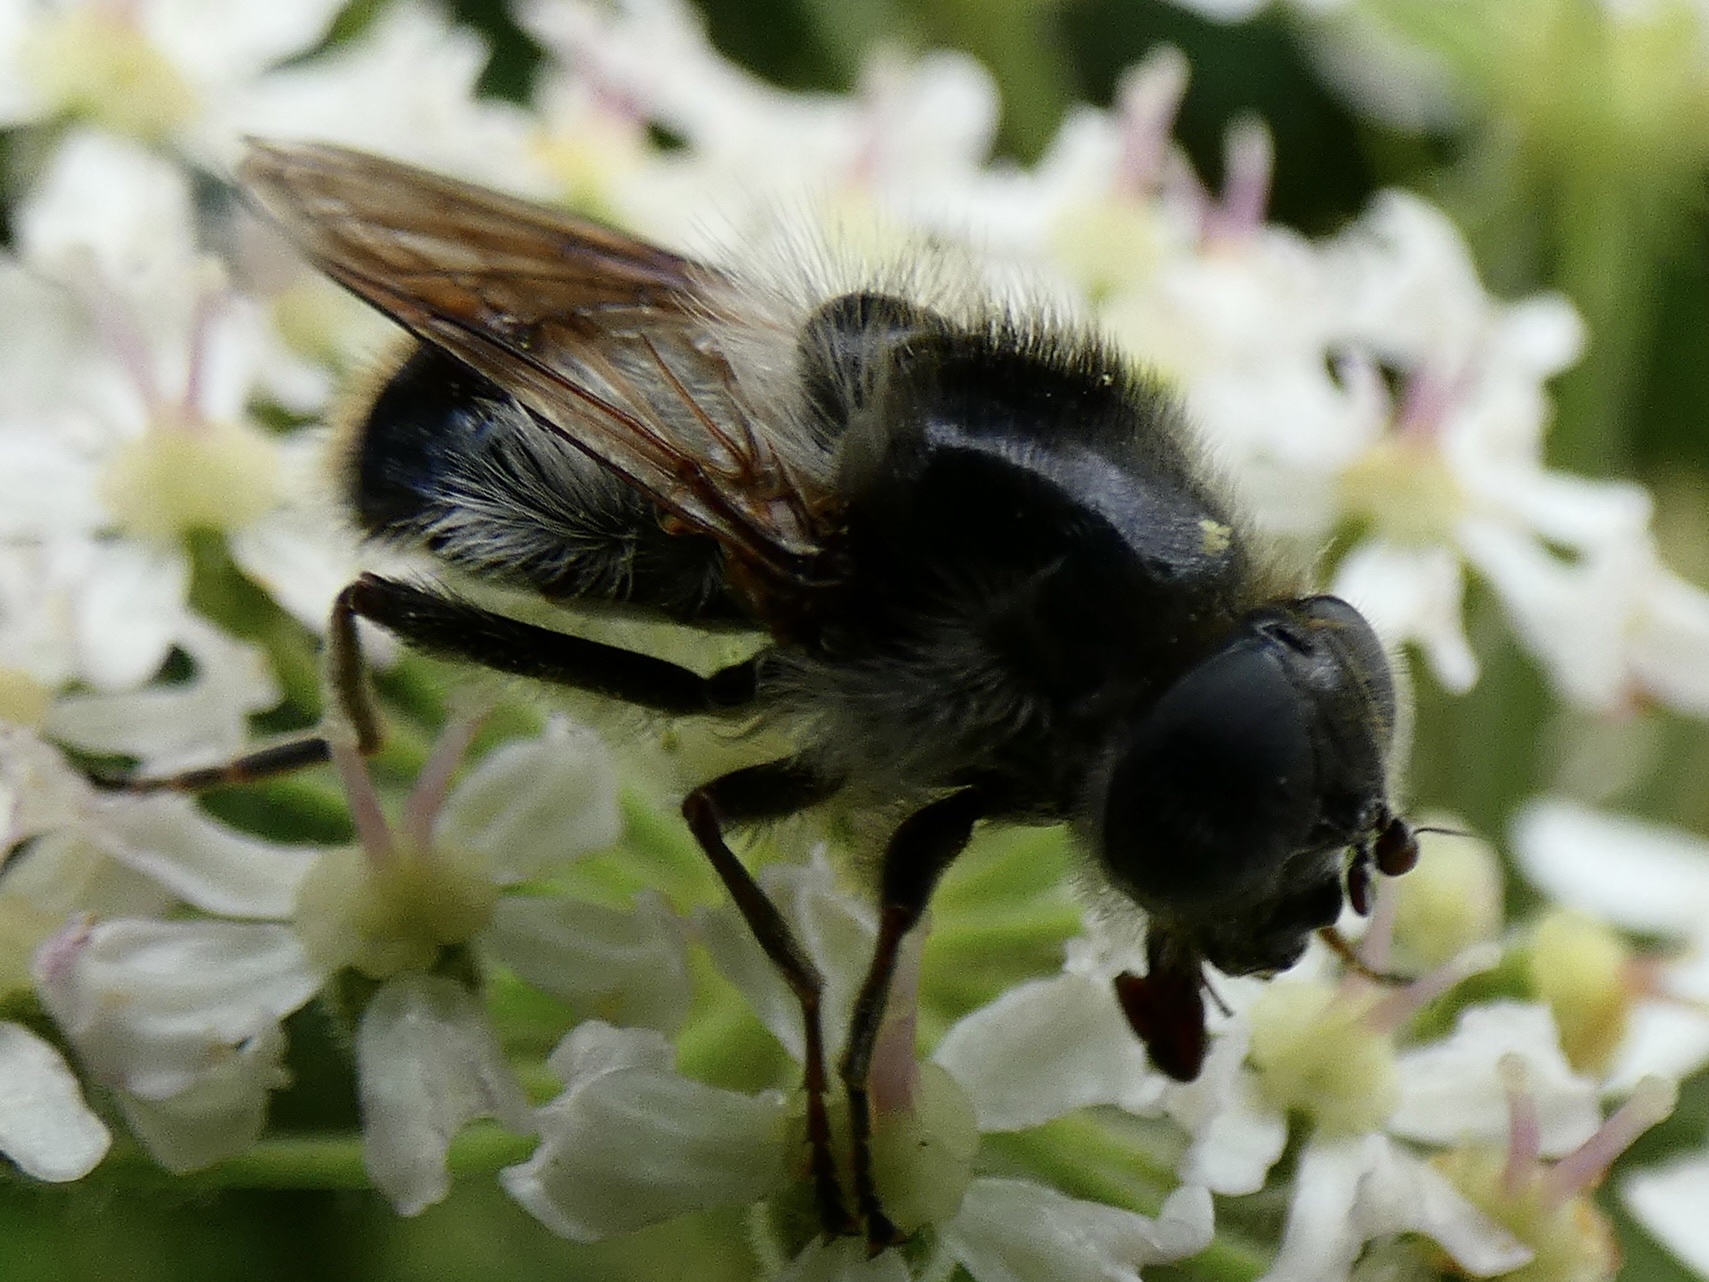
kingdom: Animalia
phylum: Arthropoda
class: Insecta
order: Diptera
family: Syrphidae
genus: Cheilosia
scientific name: Cheilosia illustrata
